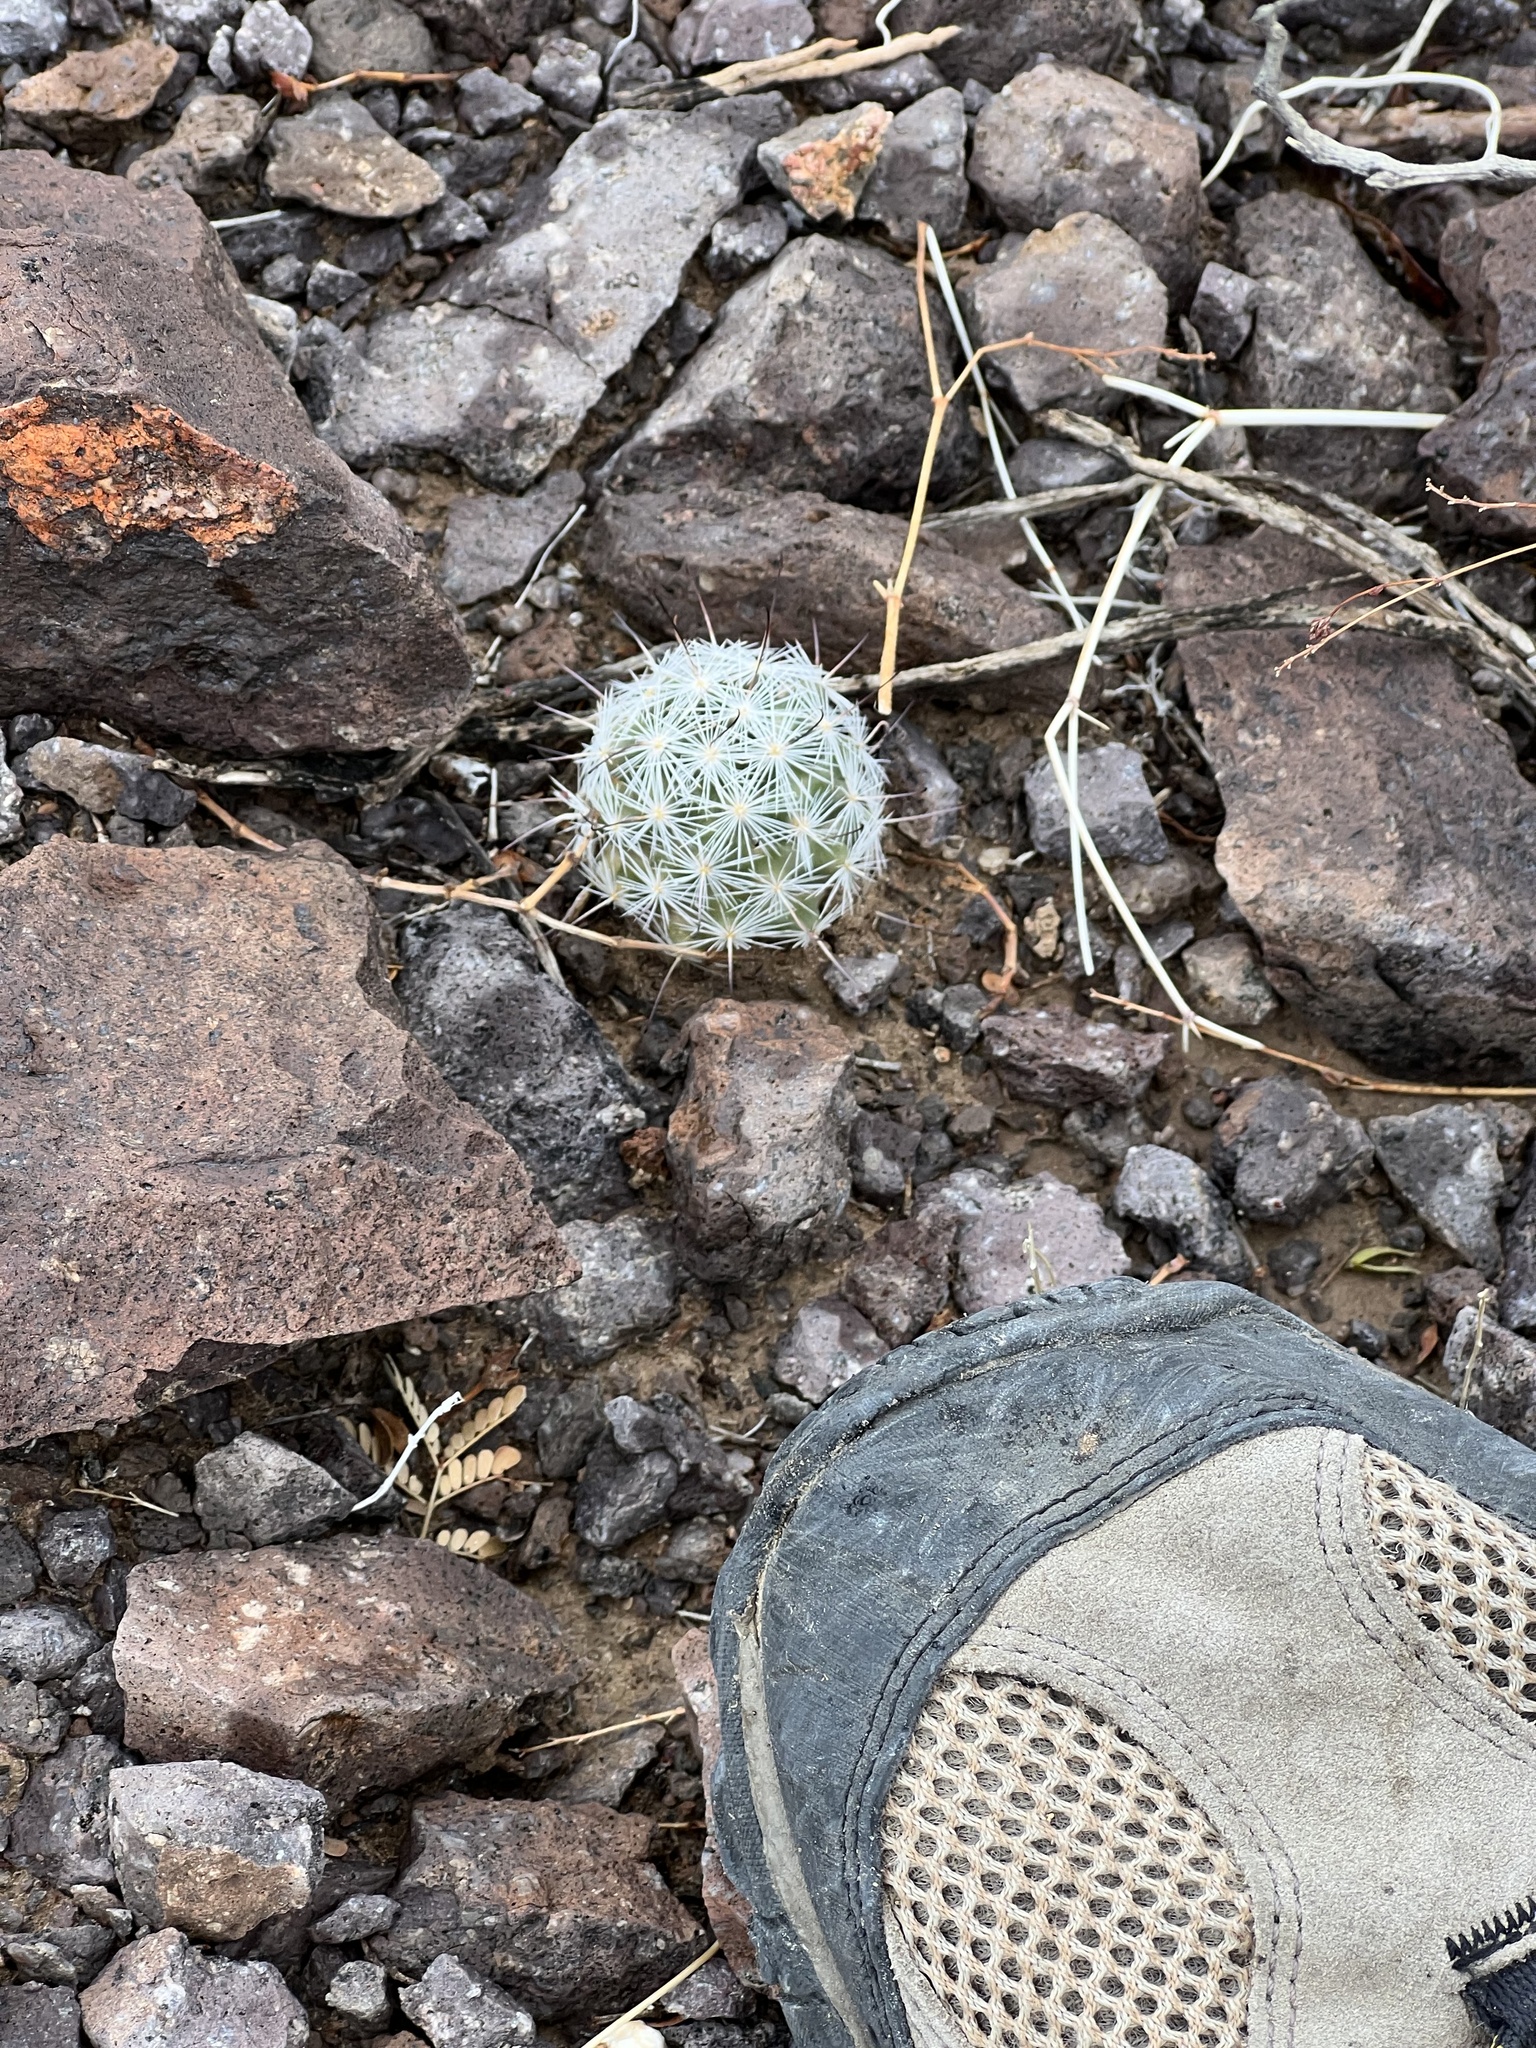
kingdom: Plantae
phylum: Tracheophyta
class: Magnoliopsida
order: Caryophyllales
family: Cactaceae
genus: Cochemiea
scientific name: Cochemiea tetrancistra
